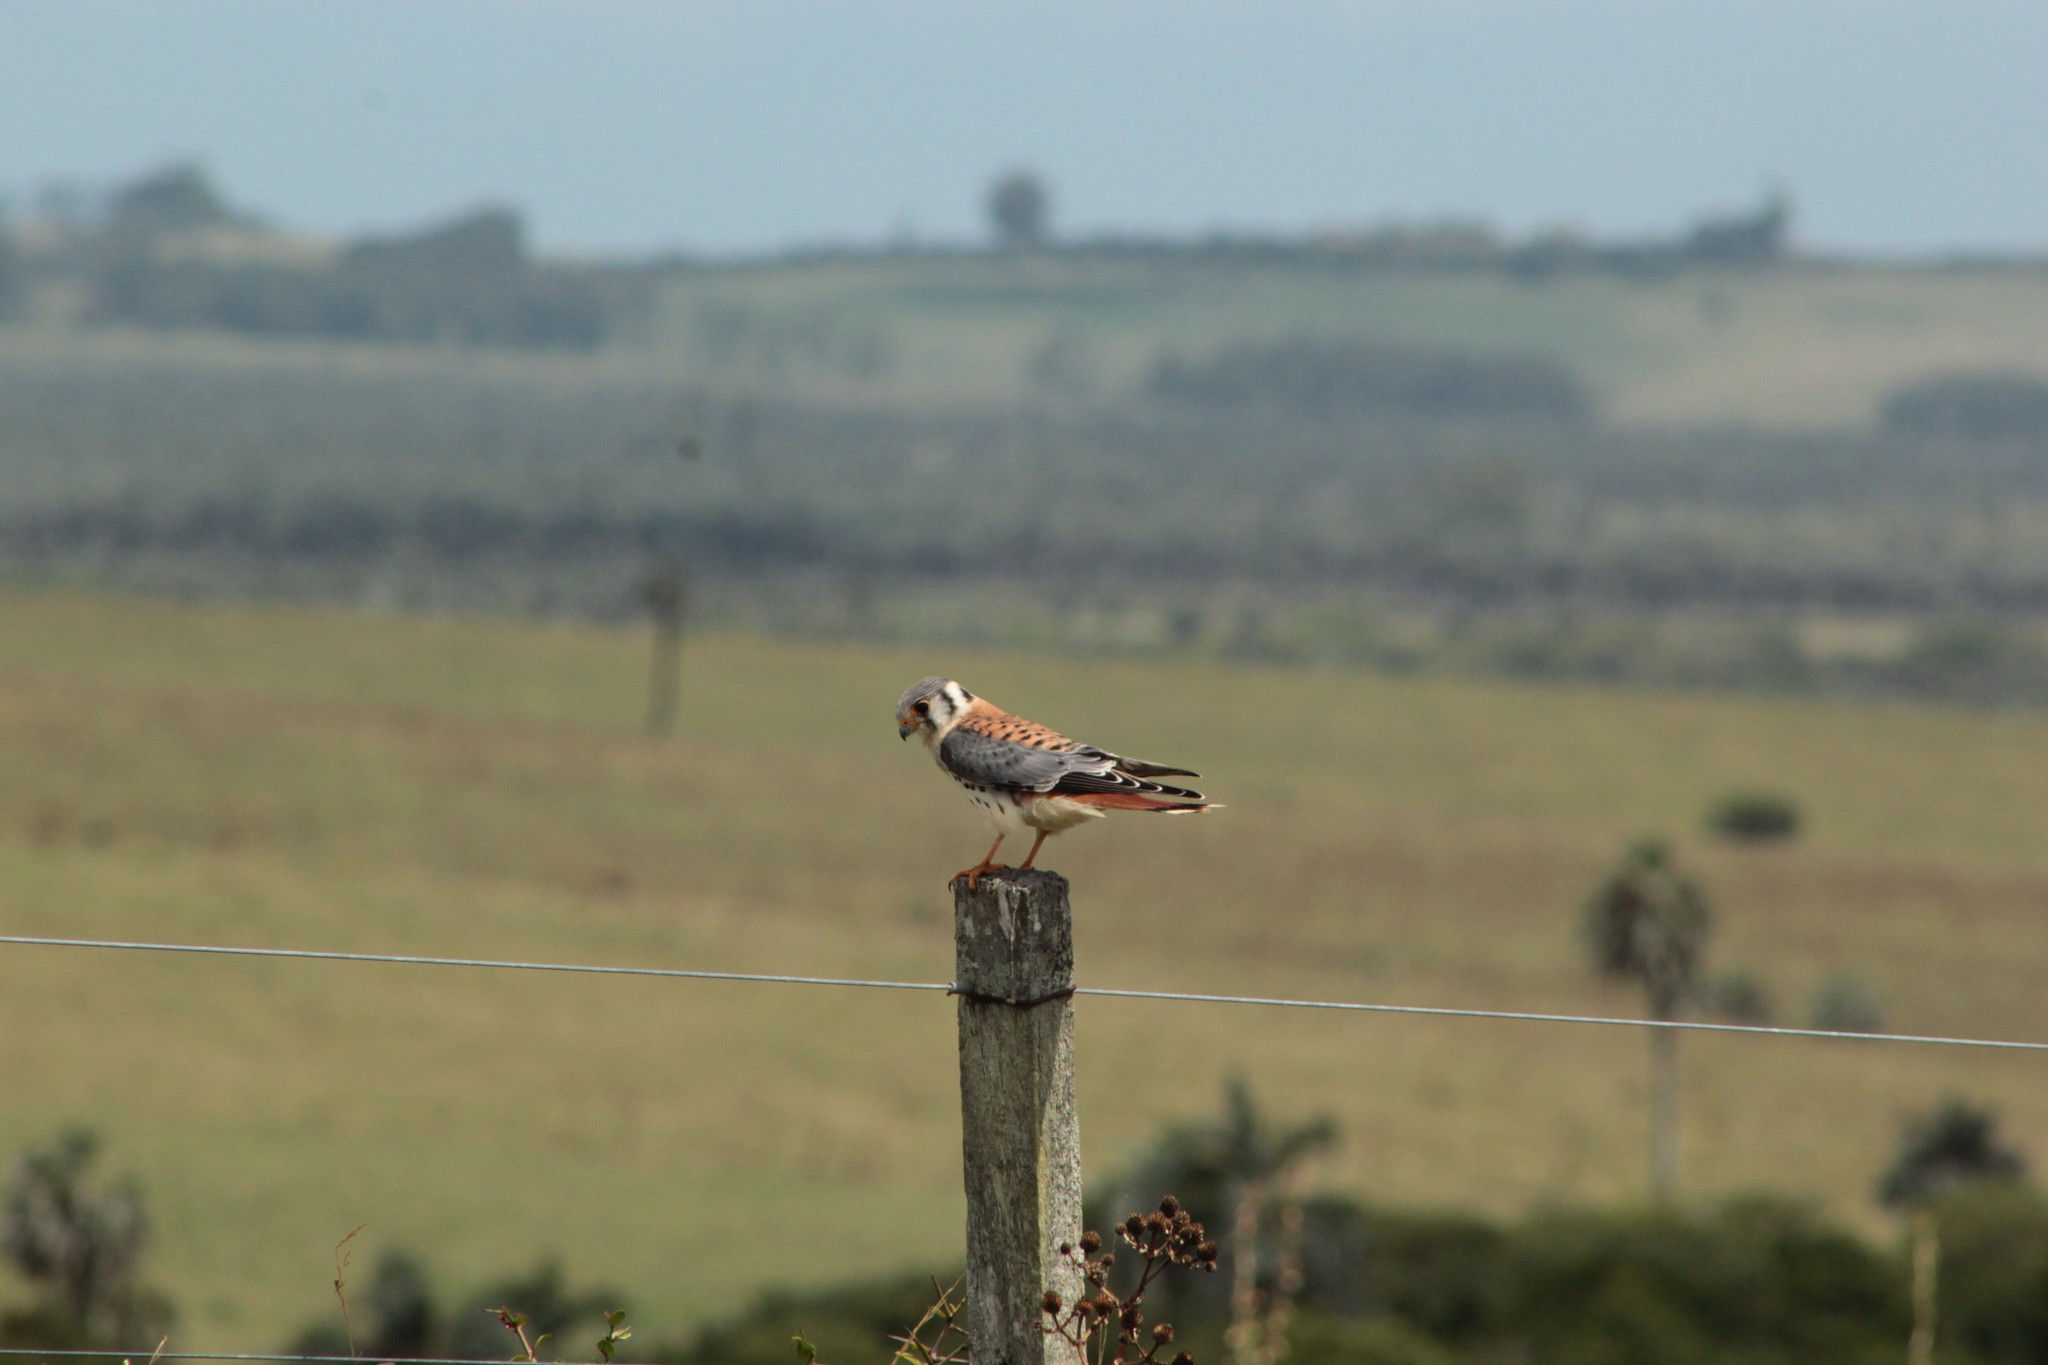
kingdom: Animalia
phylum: Chordata
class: Aves
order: Falconiformes
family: Falconidae
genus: Falco
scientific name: Falco sparverius
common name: American kestrel
